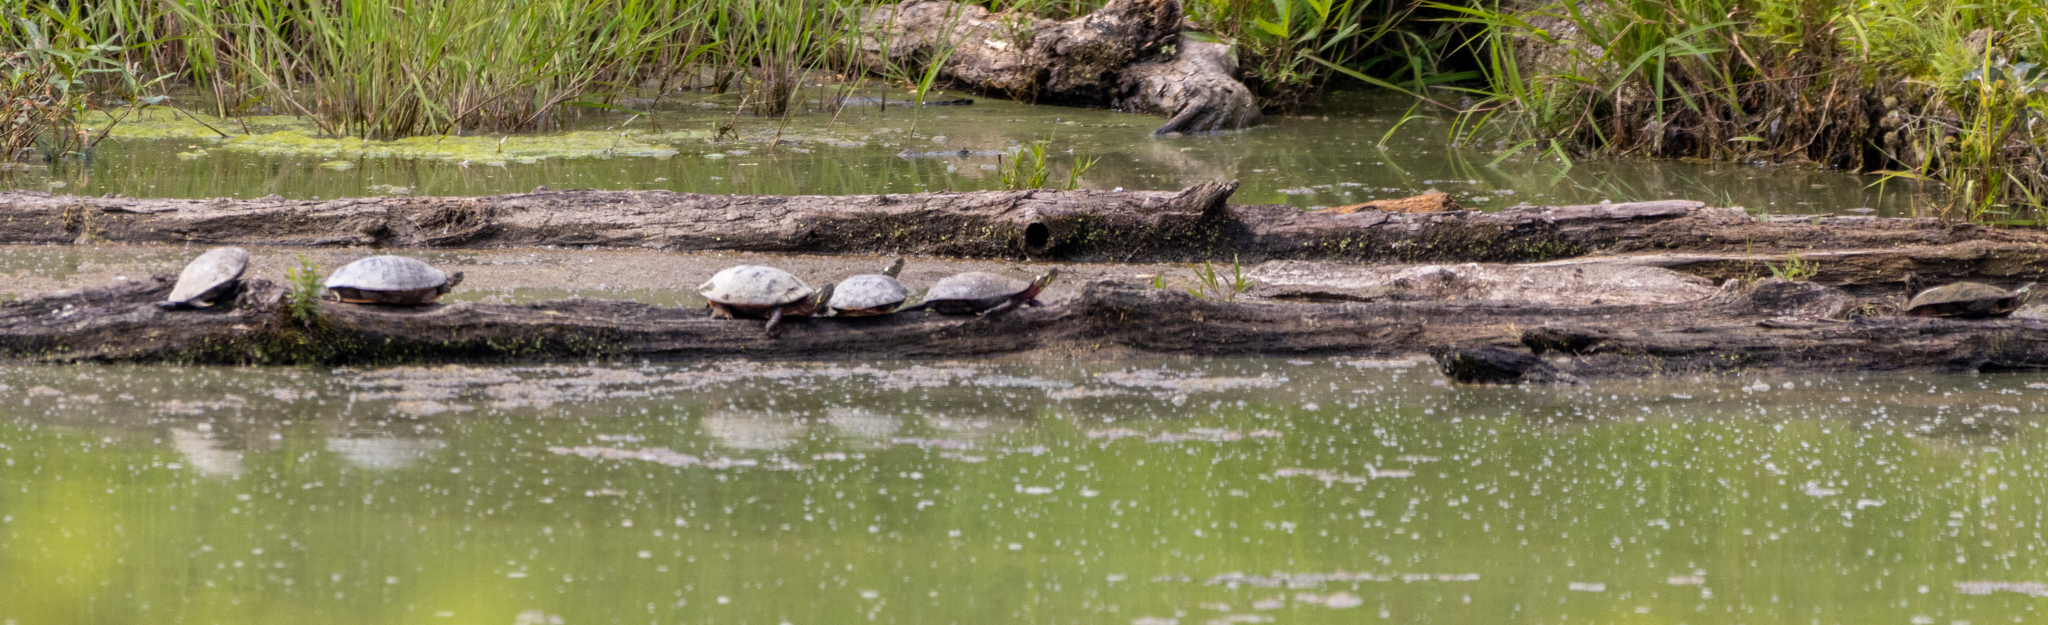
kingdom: Animalia
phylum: Chordata
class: Testudines
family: Emydidae
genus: Chrysemys
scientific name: Chrysemys picta
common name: Painted turtle
